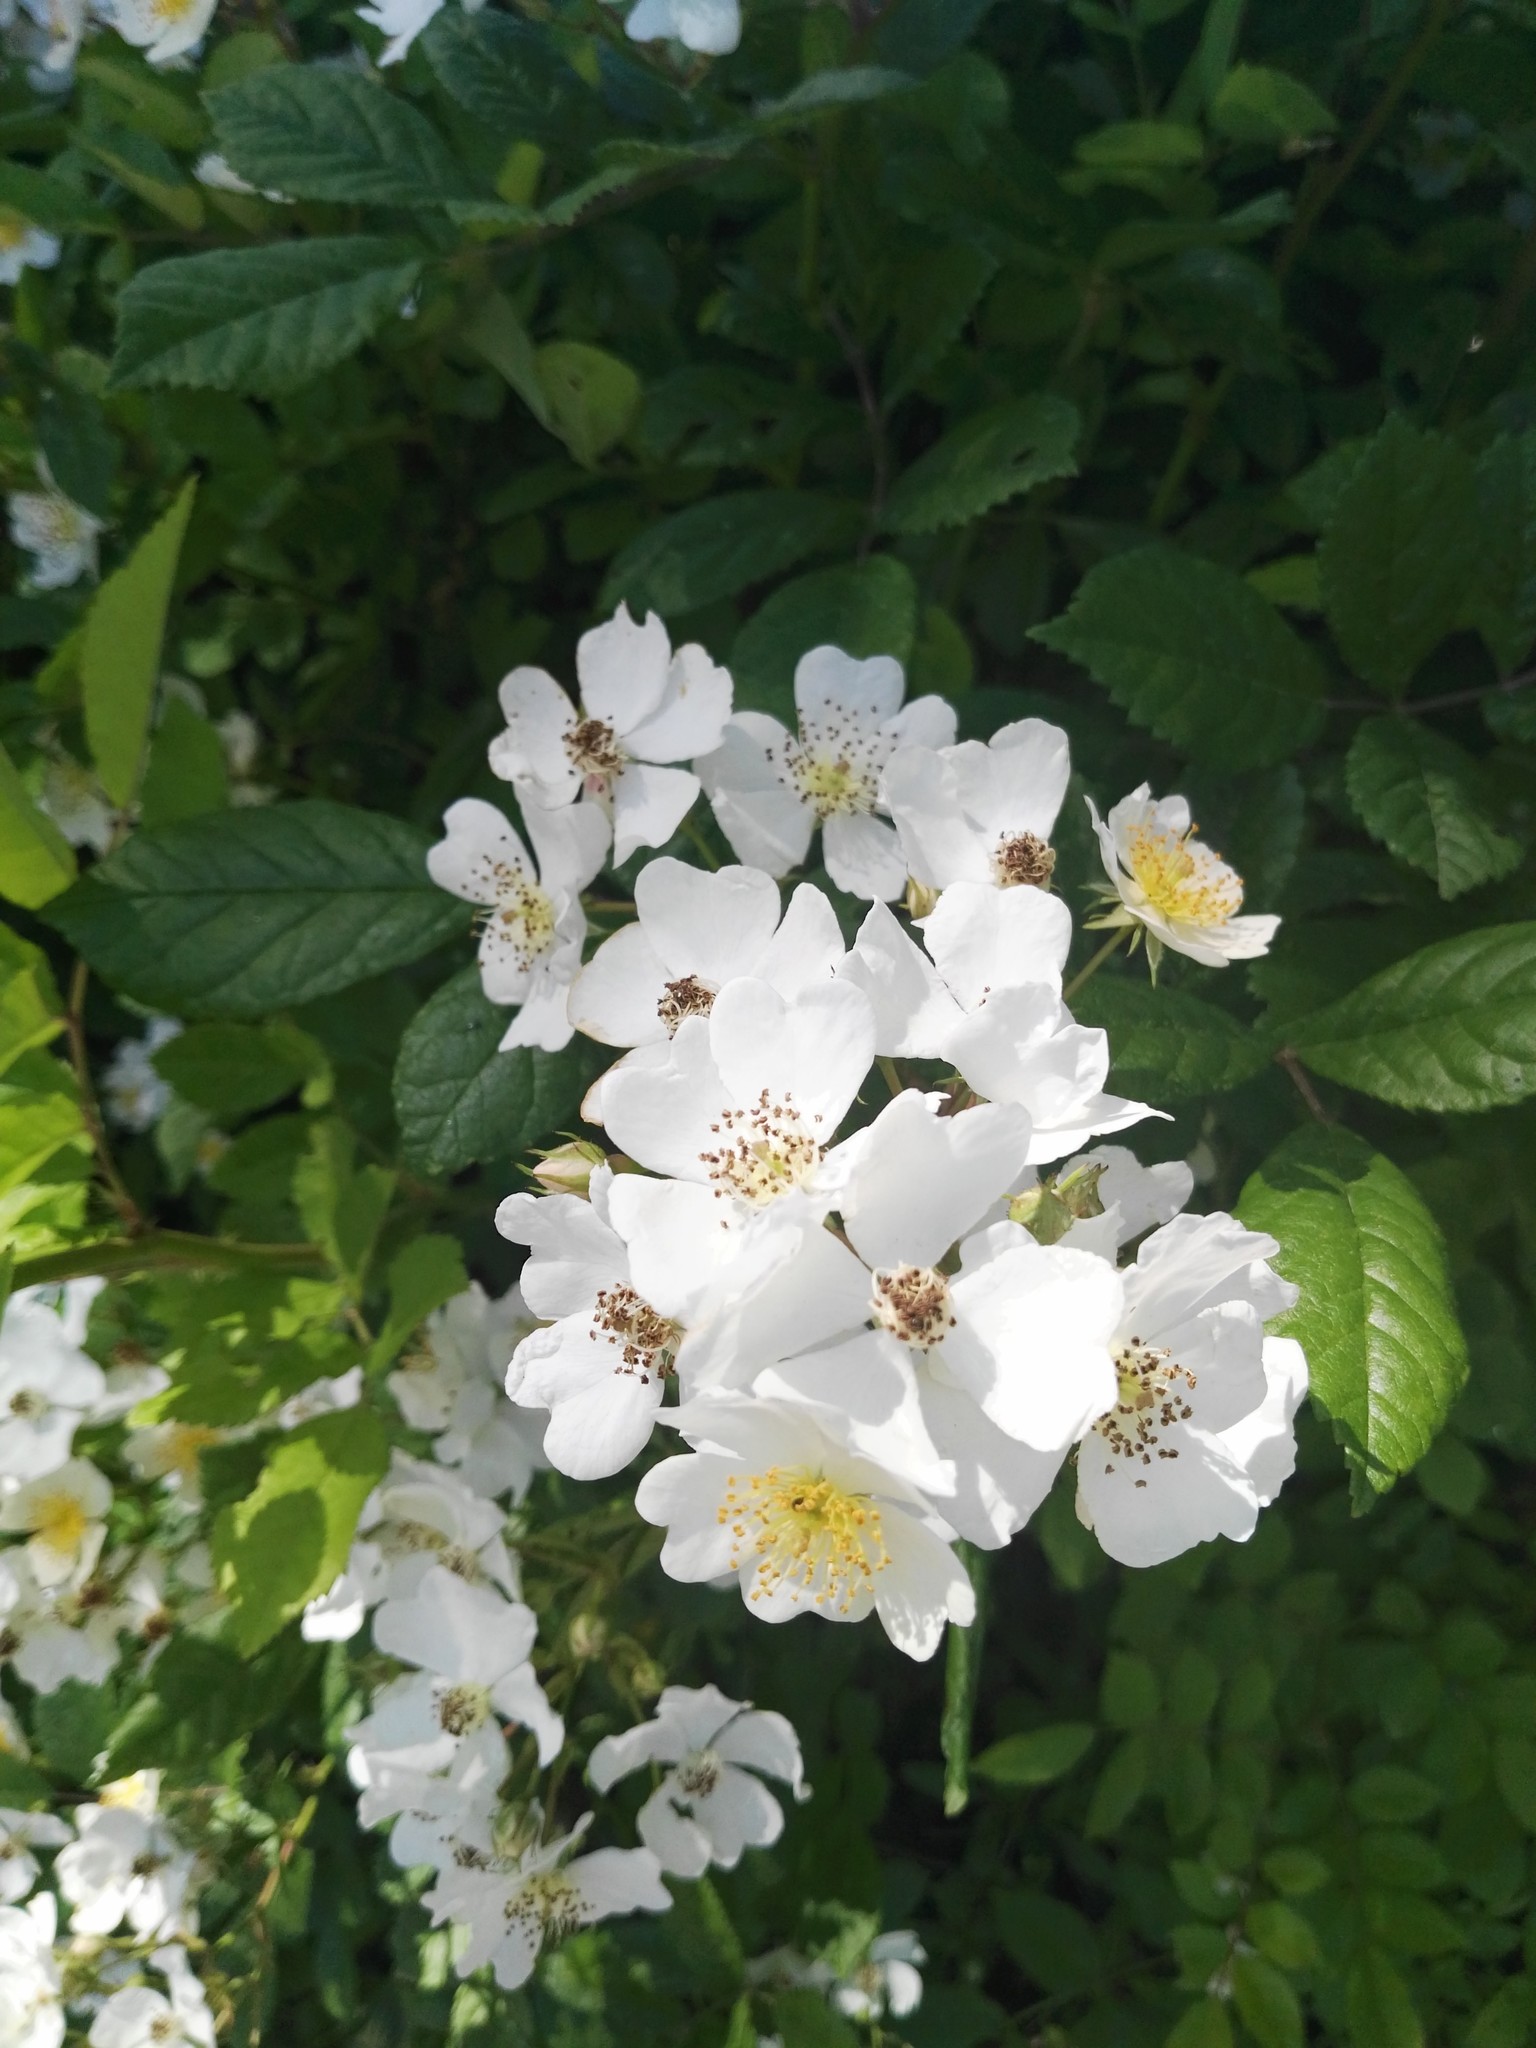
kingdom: Plantae
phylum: Tracheophyta
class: Magnoliopsida
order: Rosales
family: Rosaceae
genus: Rosa
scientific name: Rosa multiflora
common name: Multiflora rose
